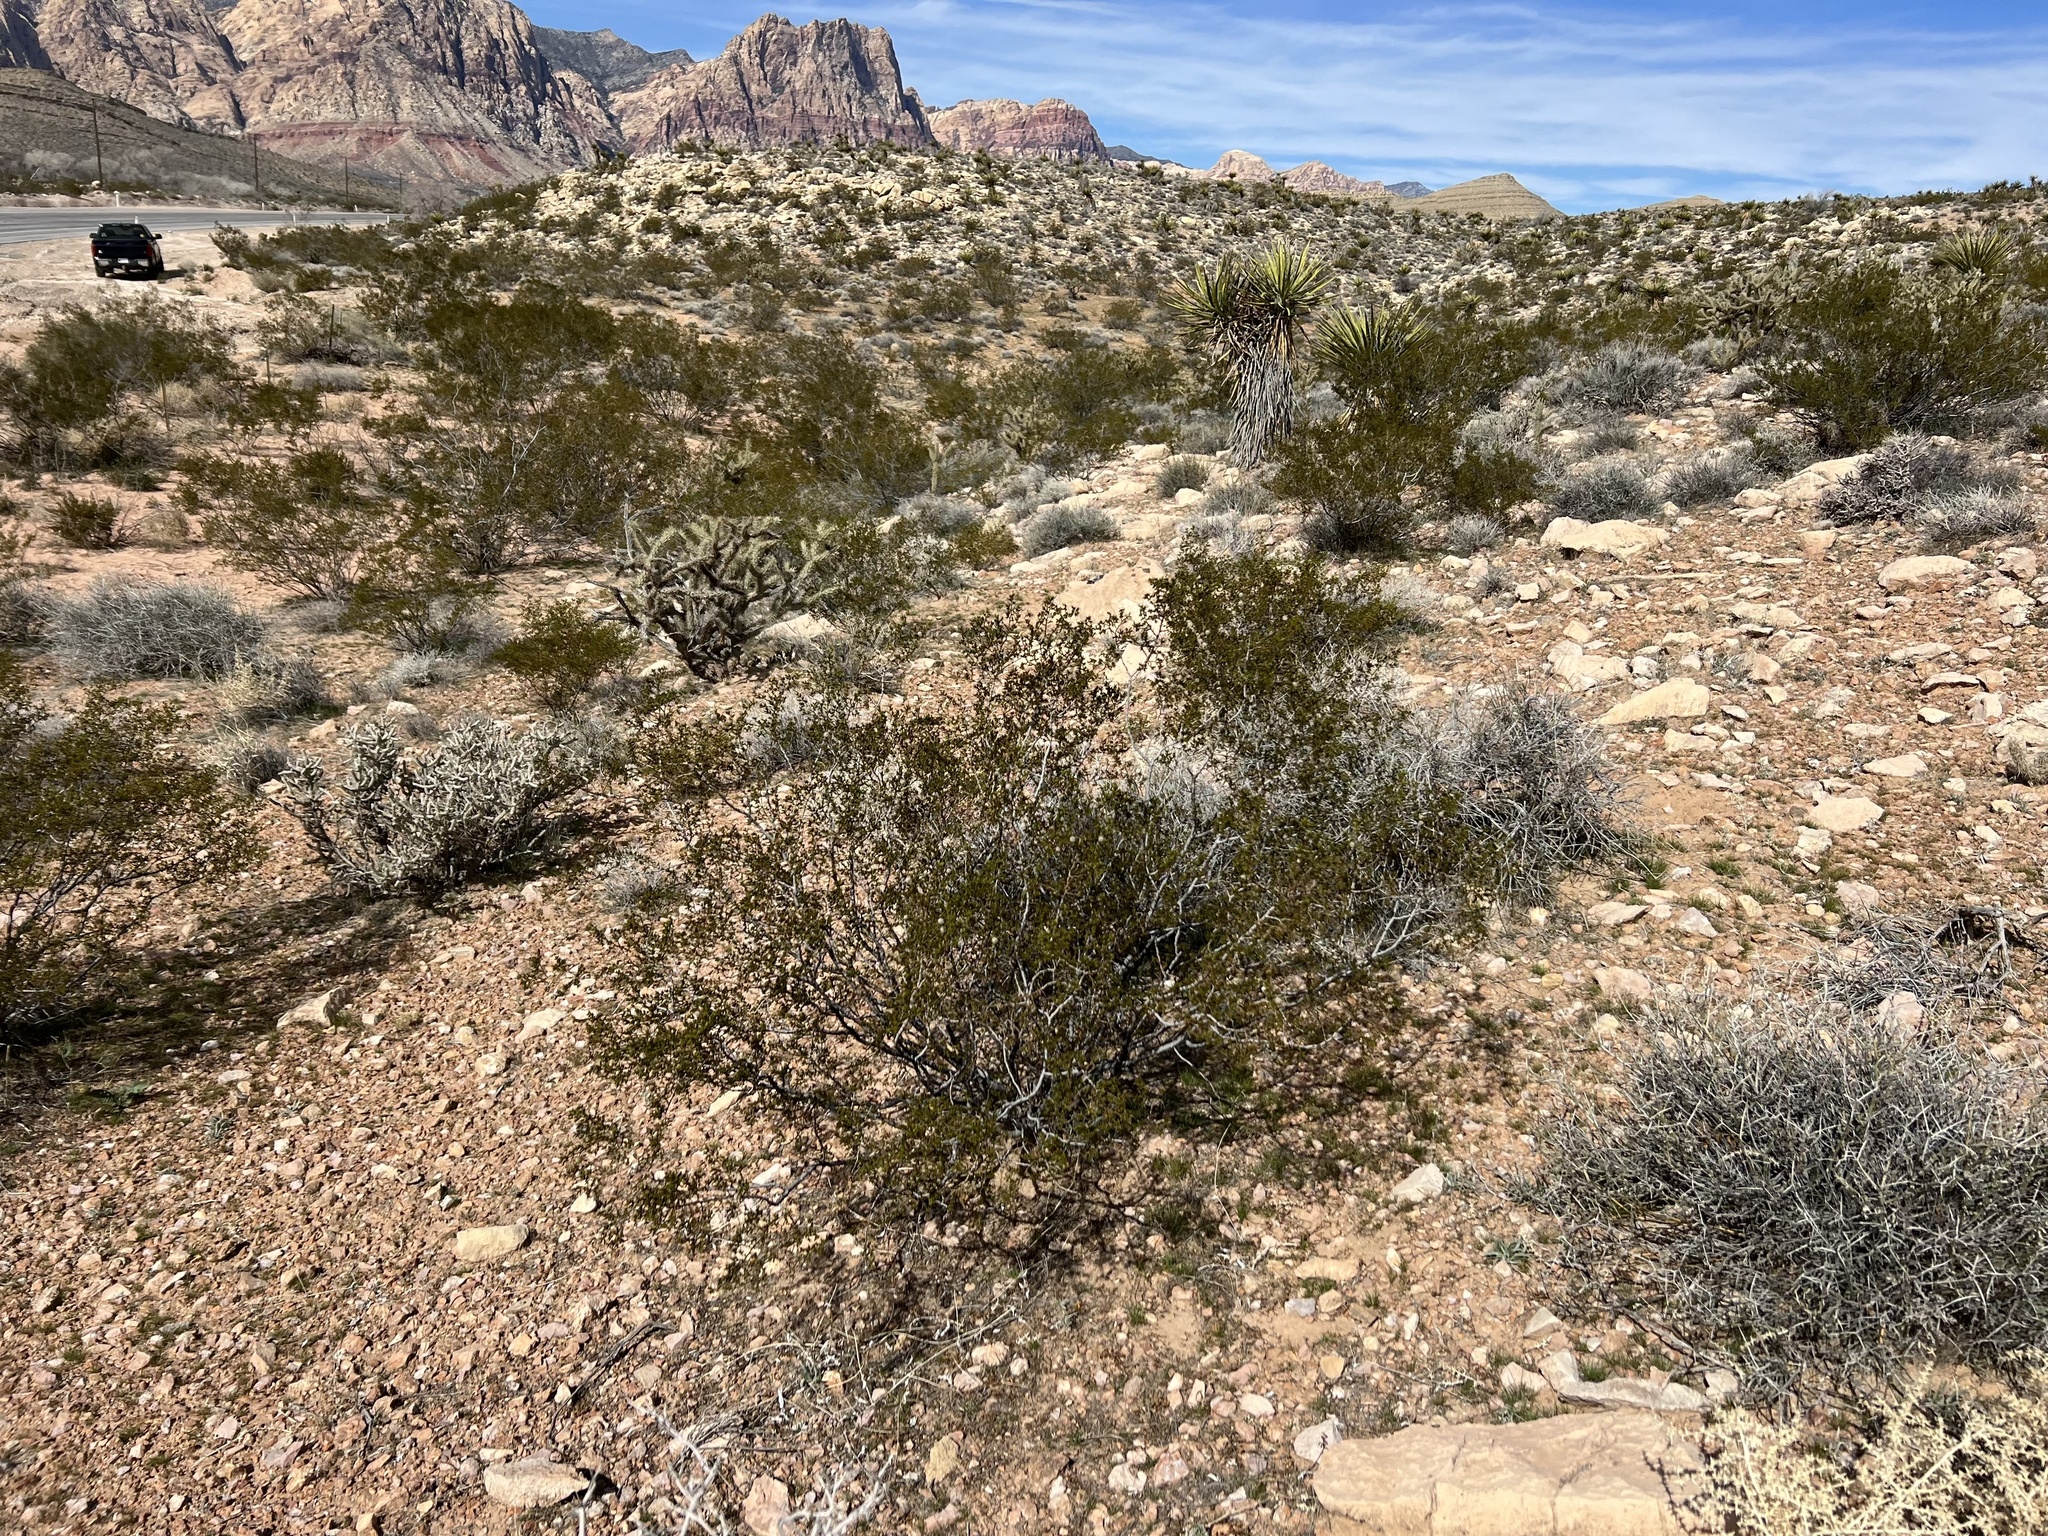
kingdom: Plantae
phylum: Tracheophyta
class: Magnoliopsida
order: Zygophyllales
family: Zygophyllaceae
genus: Larrea
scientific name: Larrea tridentata
